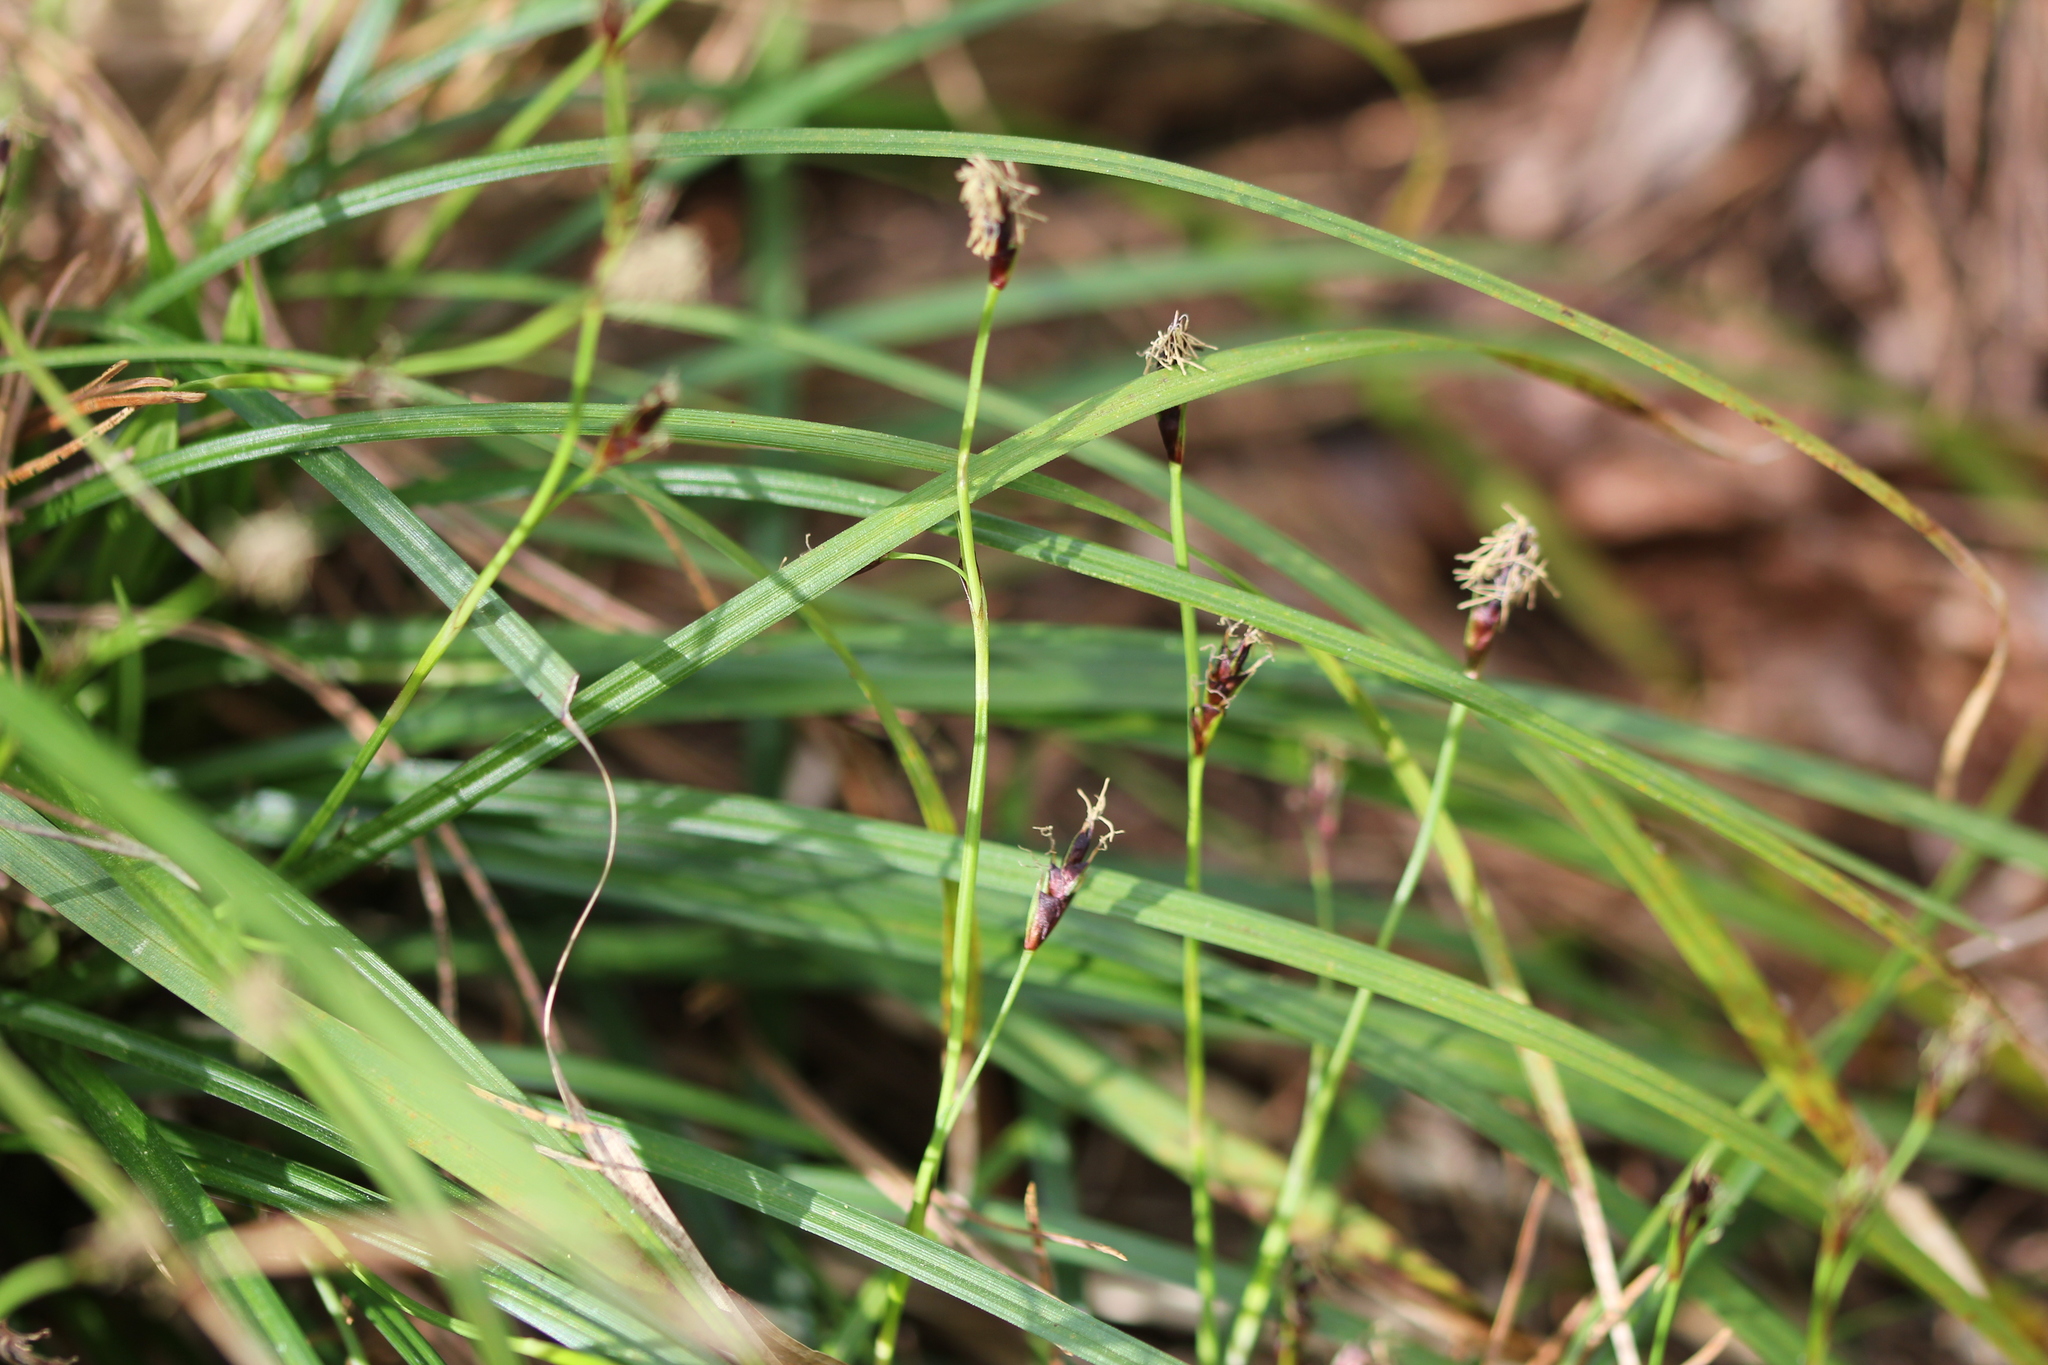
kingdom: Plantae
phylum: Tracheophyta
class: Liliopsida
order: Poales
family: Cyperaceae
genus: Carex
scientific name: Carex pedunculata
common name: Pedunculate sedge
